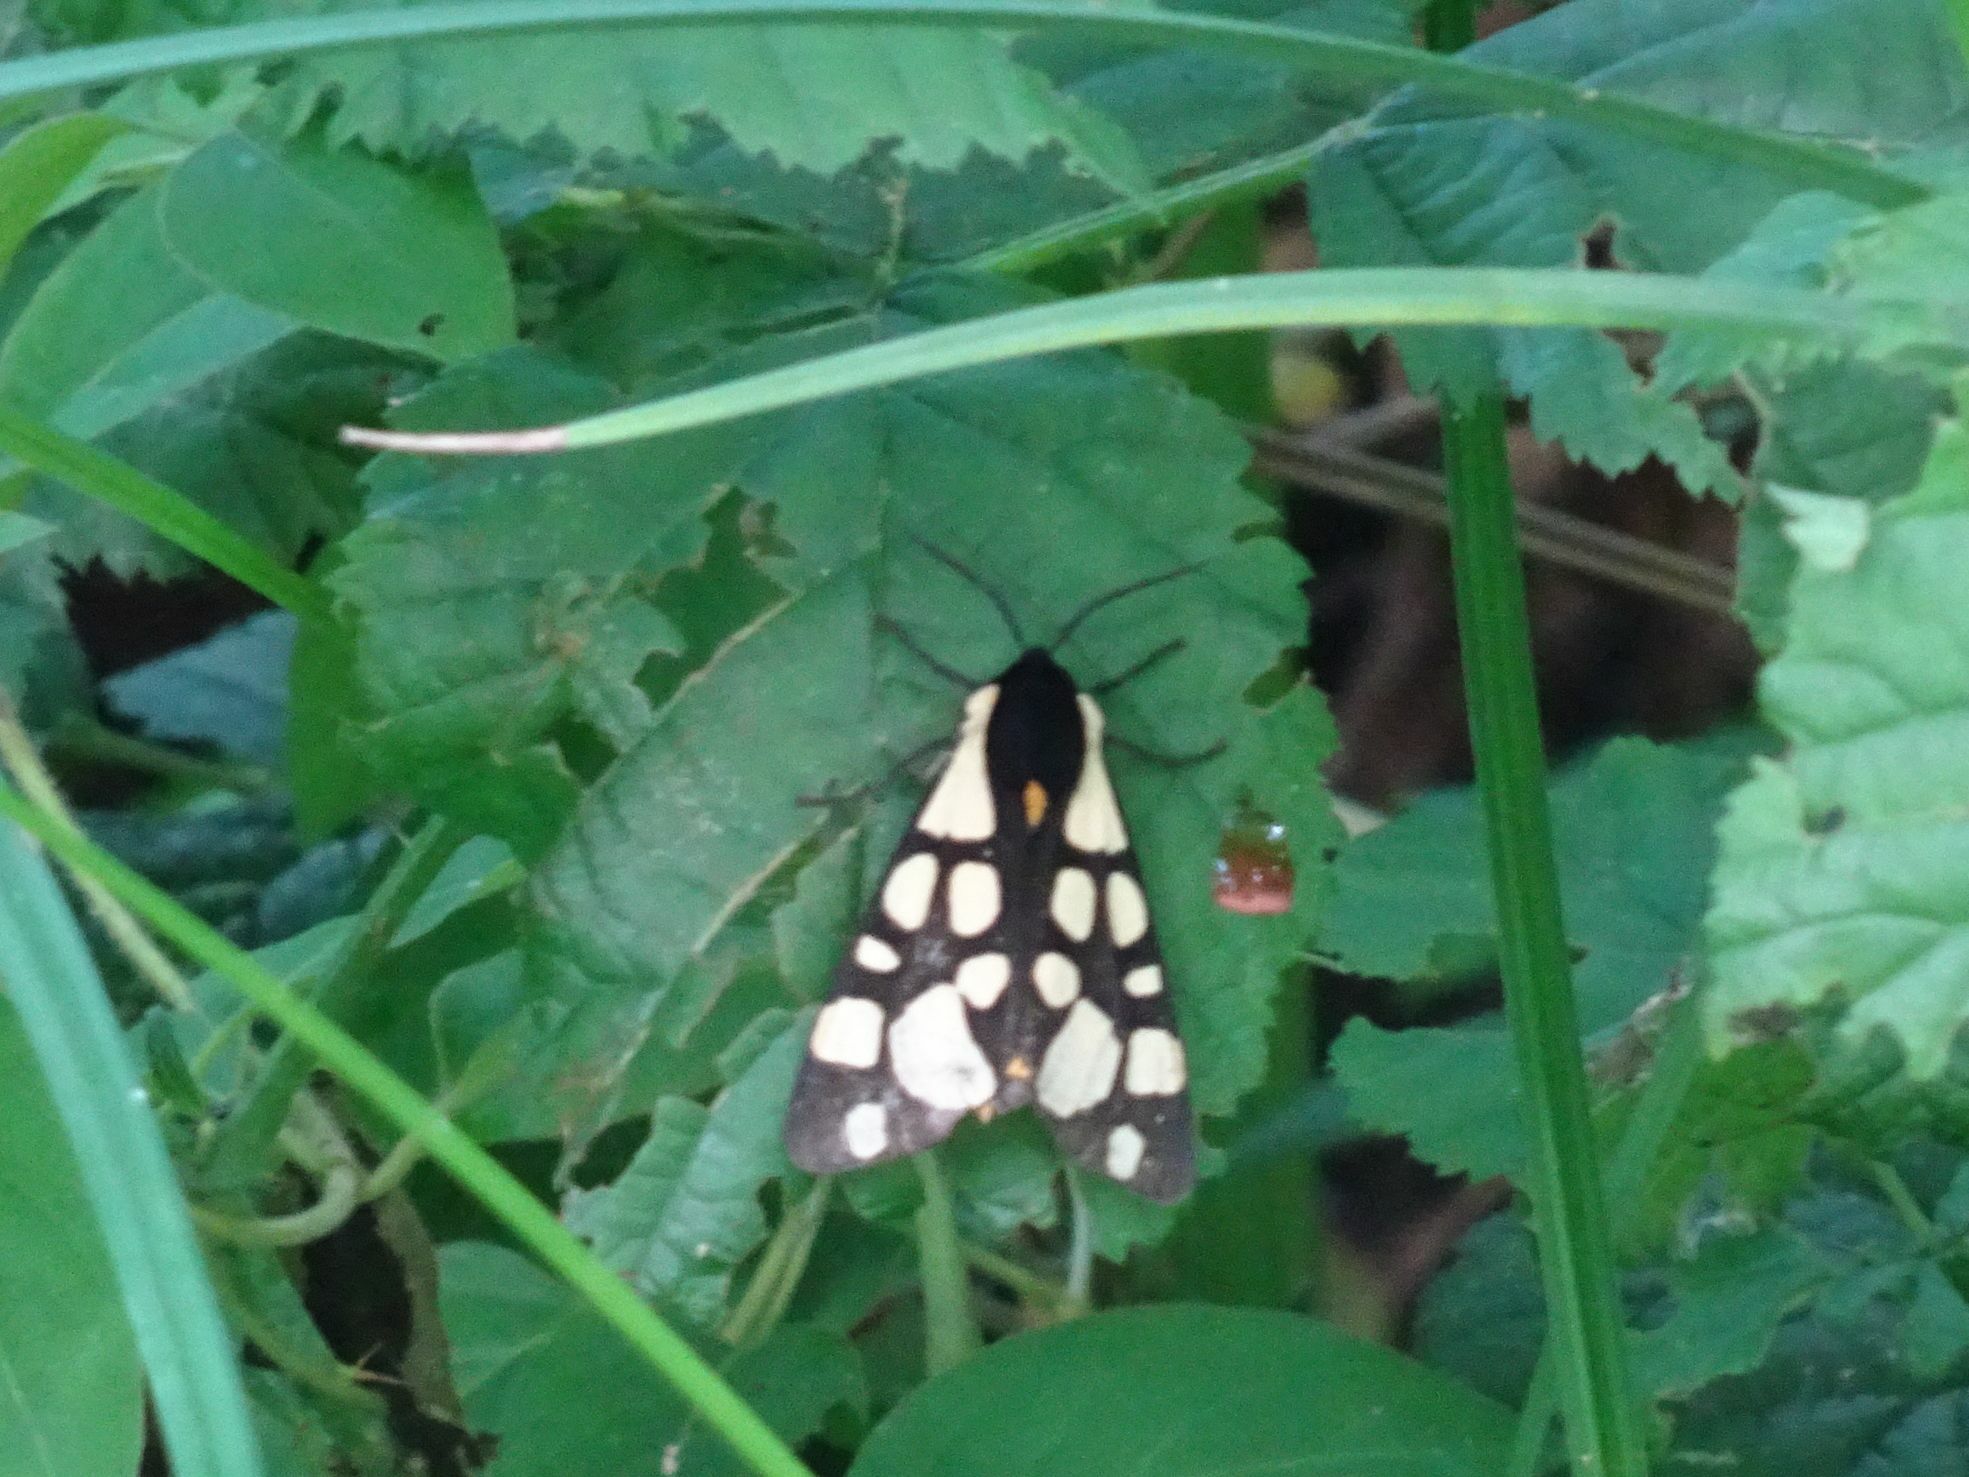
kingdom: Animalia
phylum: Arthropoda
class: Insecta
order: Lepidoptera
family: Erebidae
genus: Epicallia
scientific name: Epicallia villica
